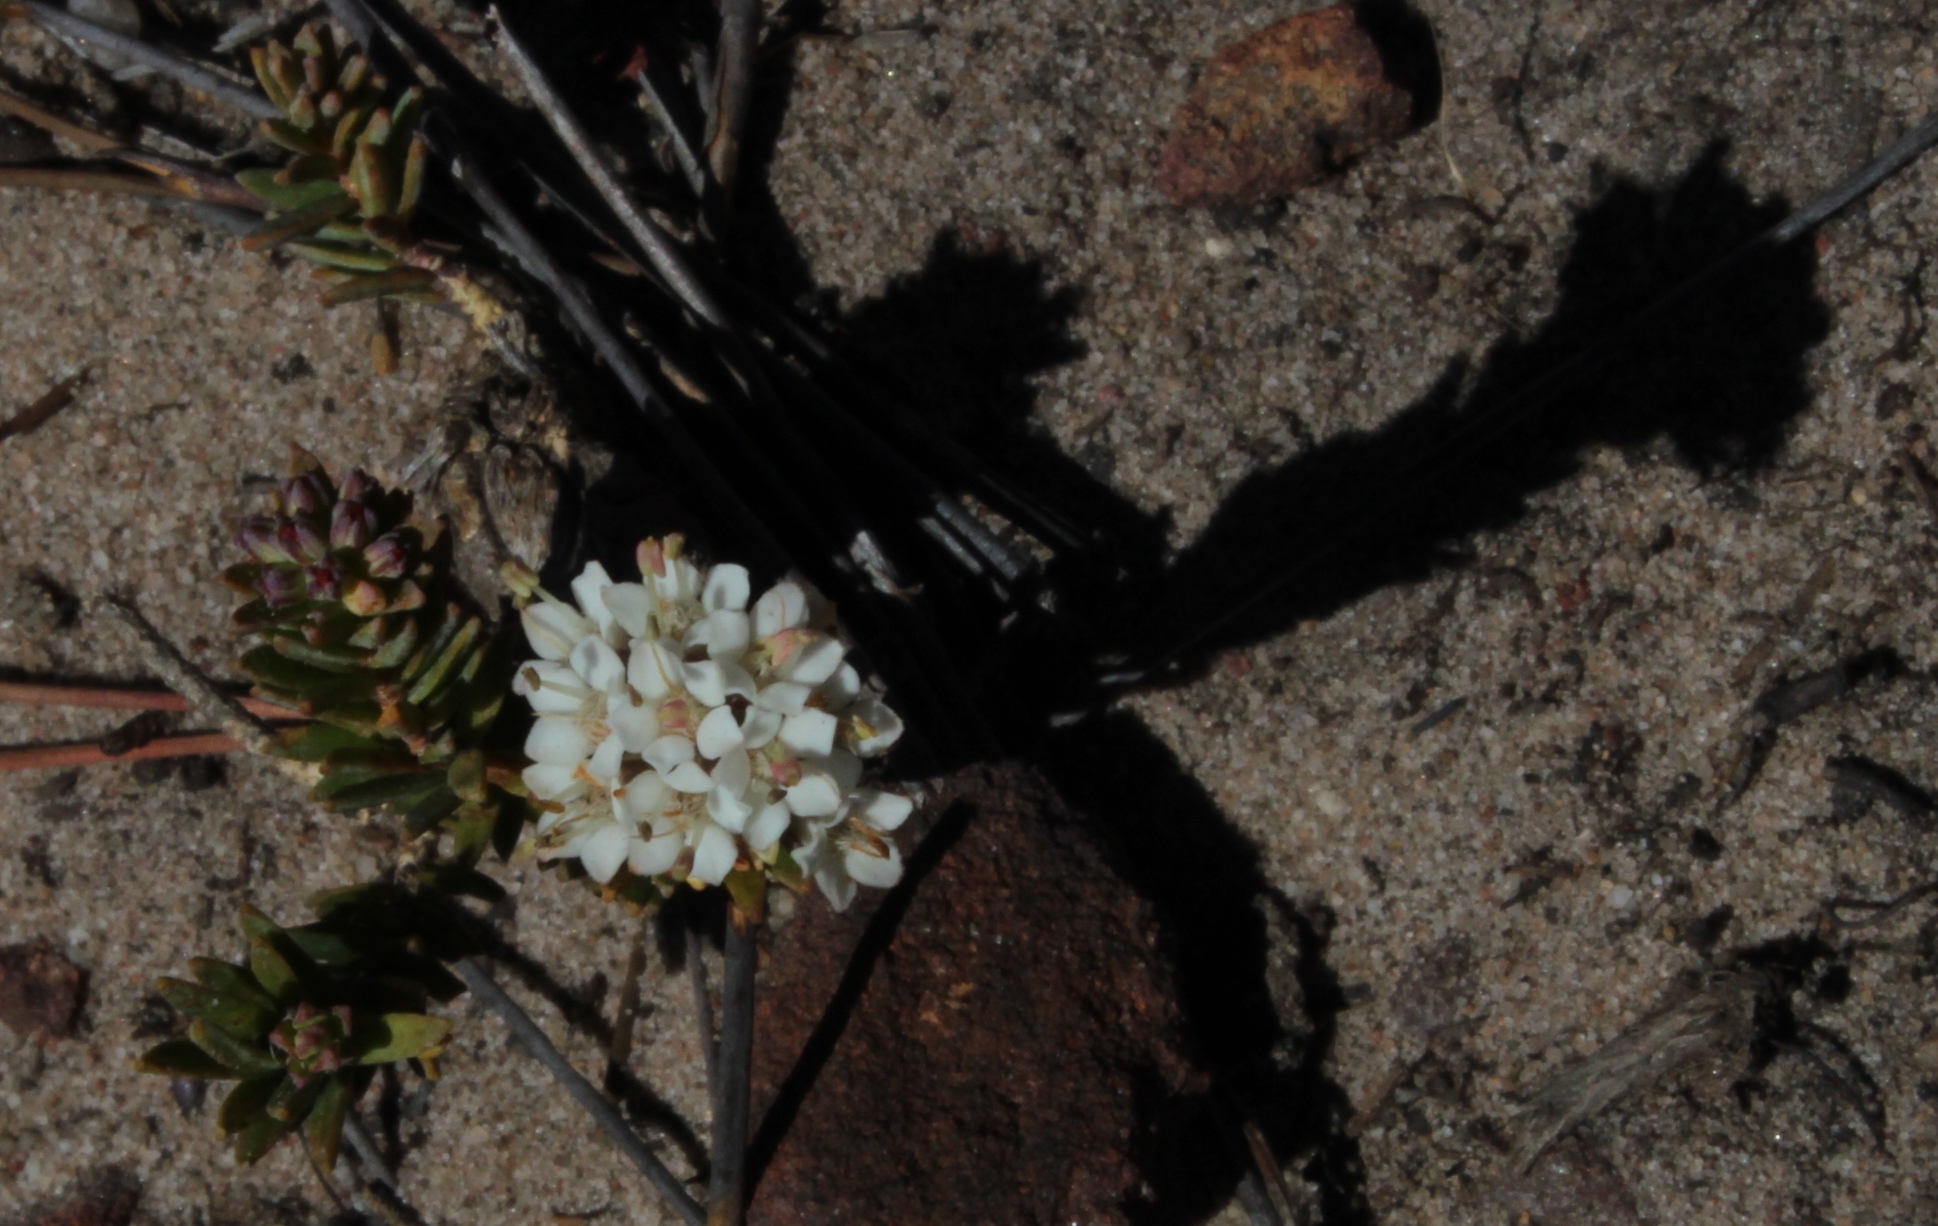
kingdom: Plantae
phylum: Tracheophyta
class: Magnoliopsida
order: Sapindales
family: Rutaceae
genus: Macrostylis
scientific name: Macrostylis villosa
